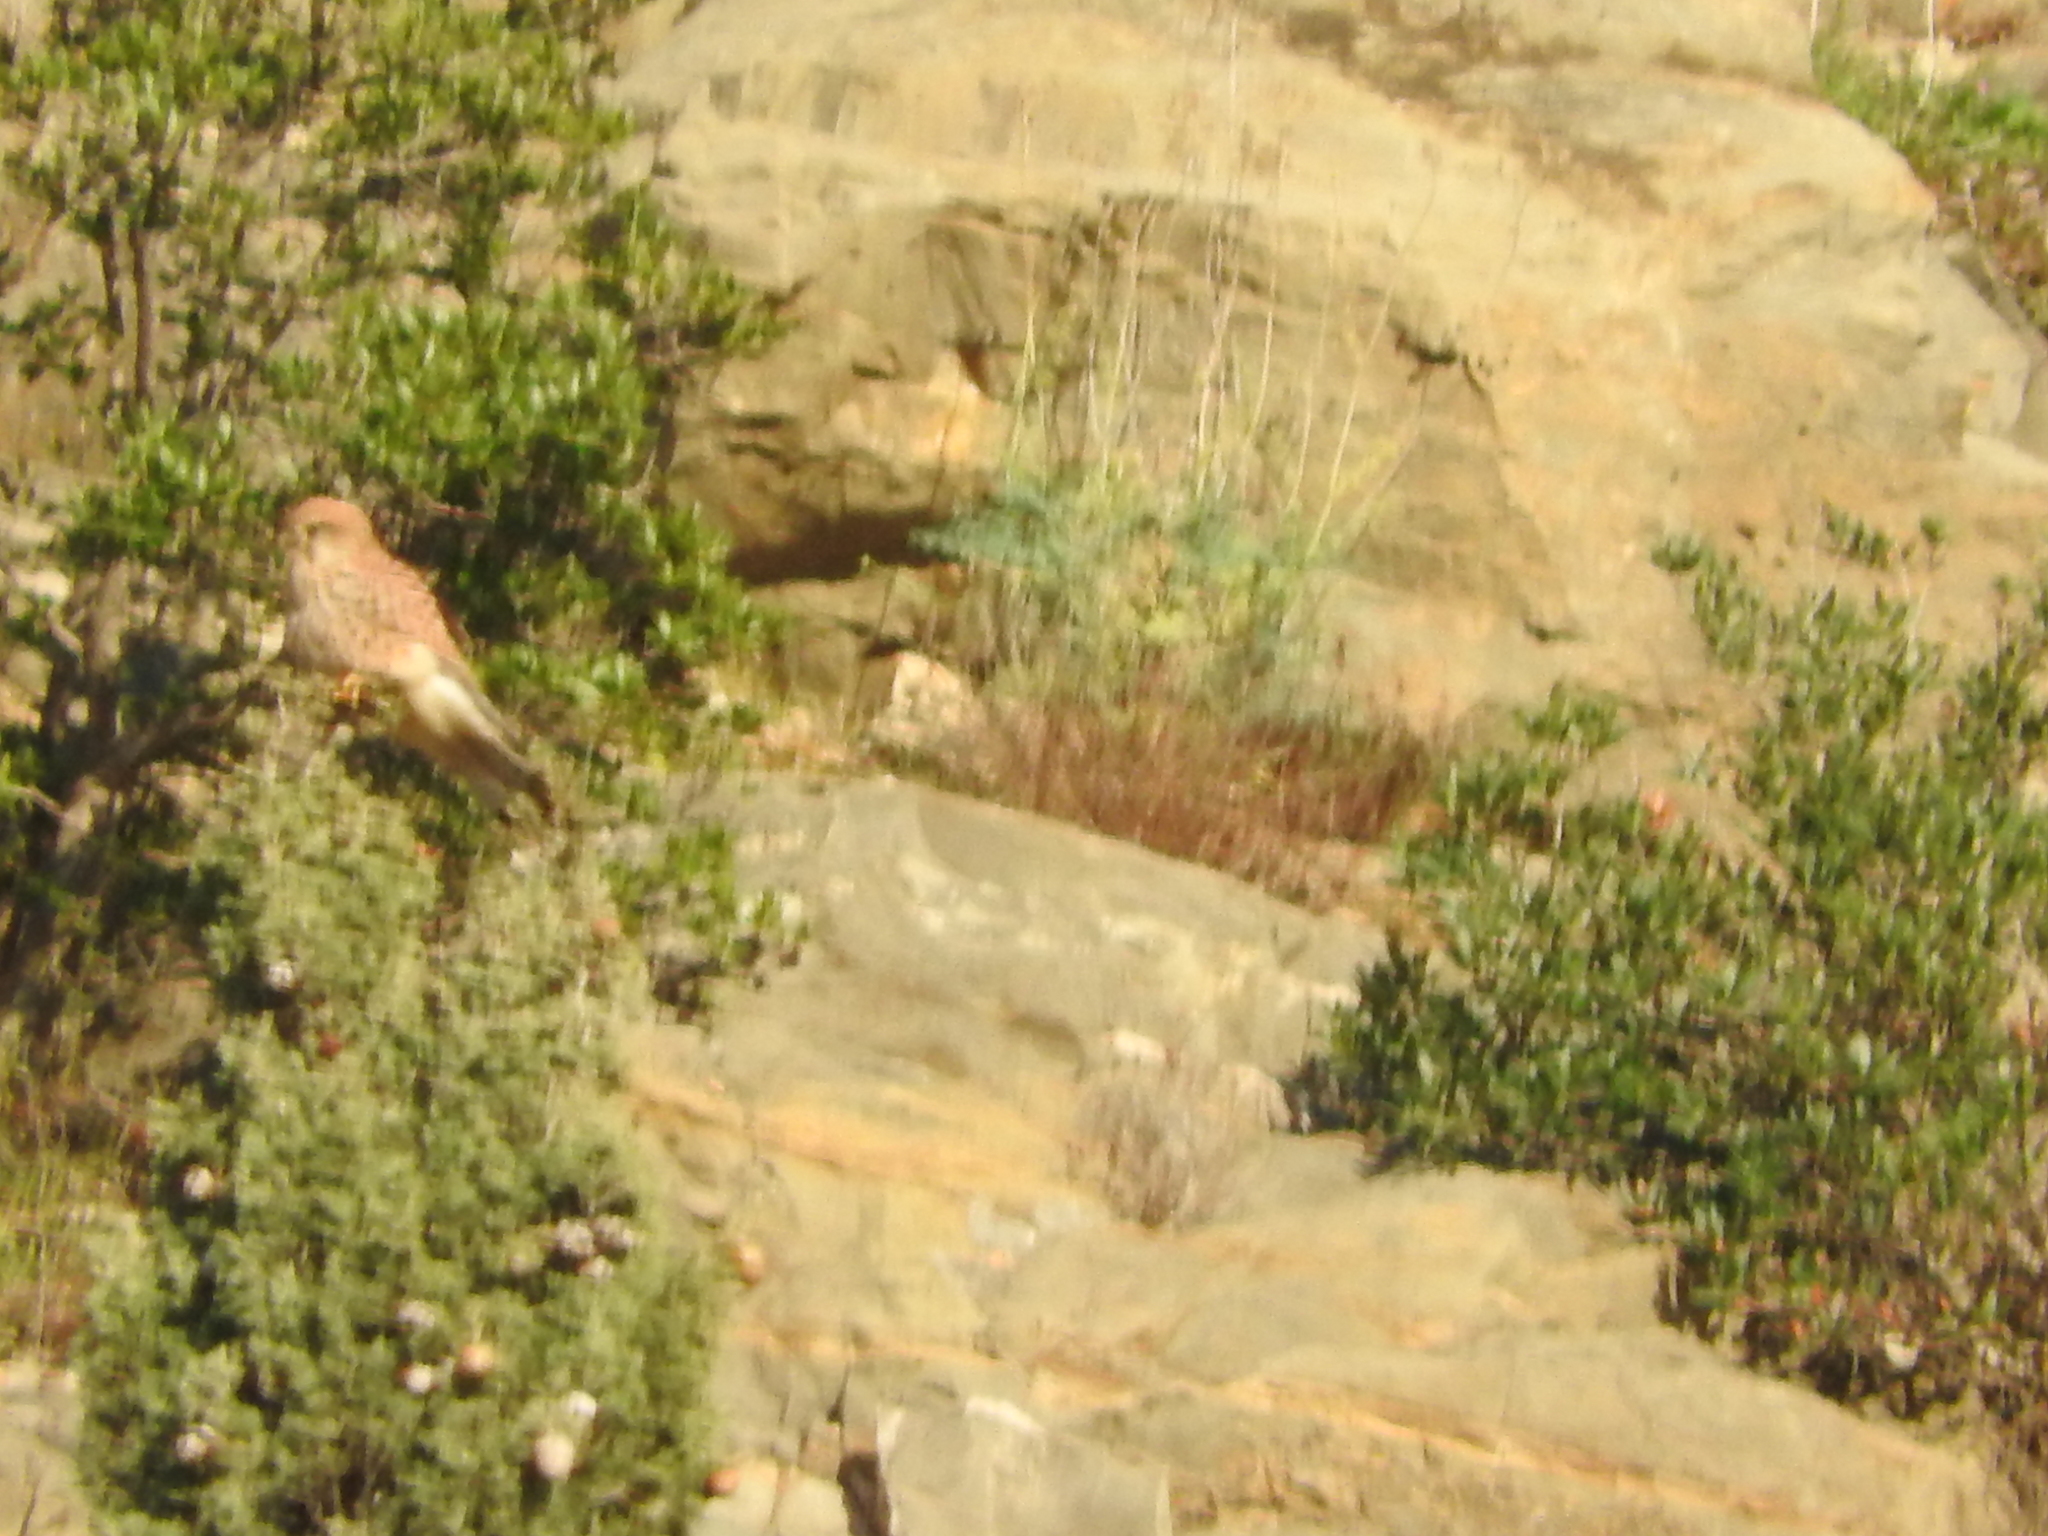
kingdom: Animalia
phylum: Chordata
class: Aves
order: Falconiformes
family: Falconidae
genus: Falco
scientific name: Falco tinnunculus
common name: Common kestrel
